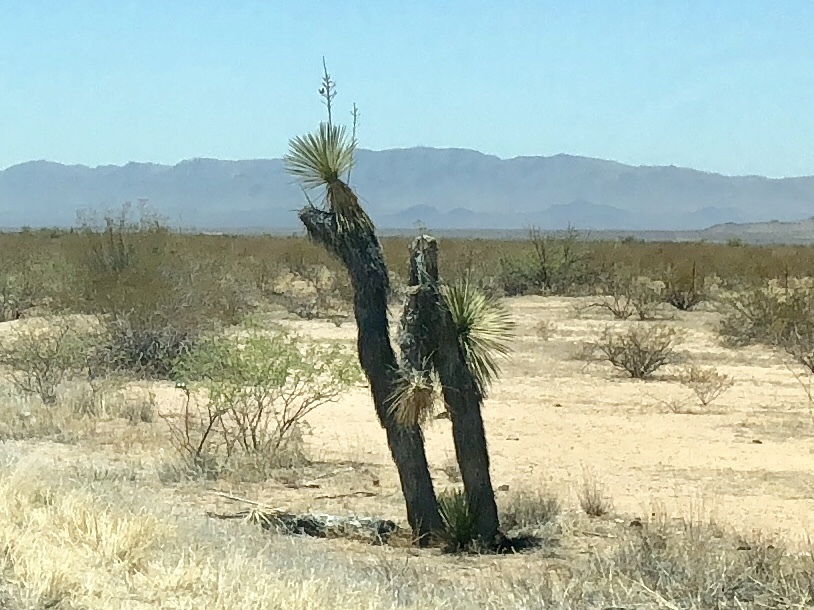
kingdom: Plantae
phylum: Tracheophyta
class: Liliopsida
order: Asparagales
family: Asparagaceae
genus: Yucca
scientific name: Yucca elata
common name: Palmella
